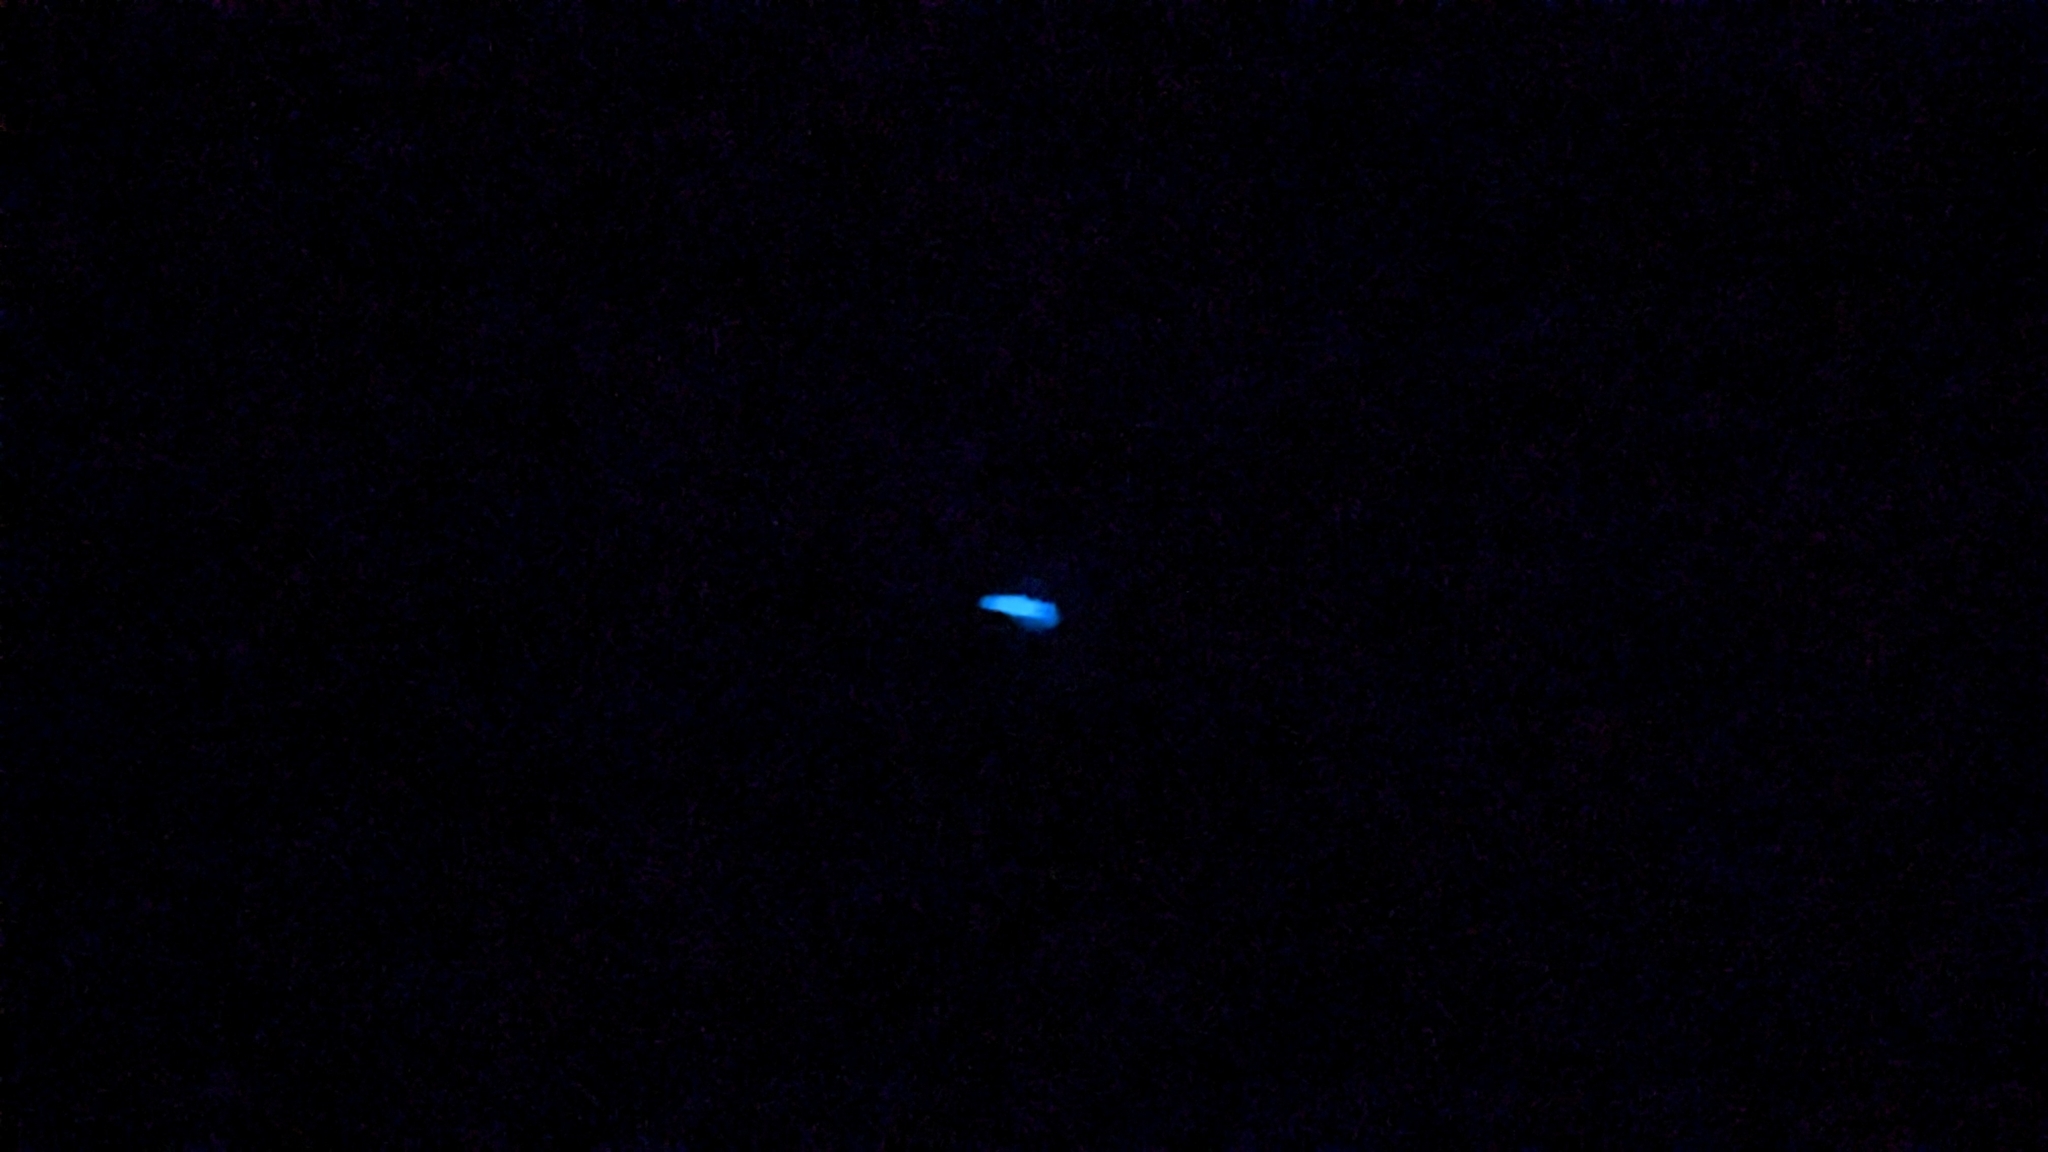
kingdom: Animalia
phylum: Arthropoda
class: Insecta
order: Diptera
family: Keroplatidae
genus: Orfelia
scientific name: Orfelia fultoni
